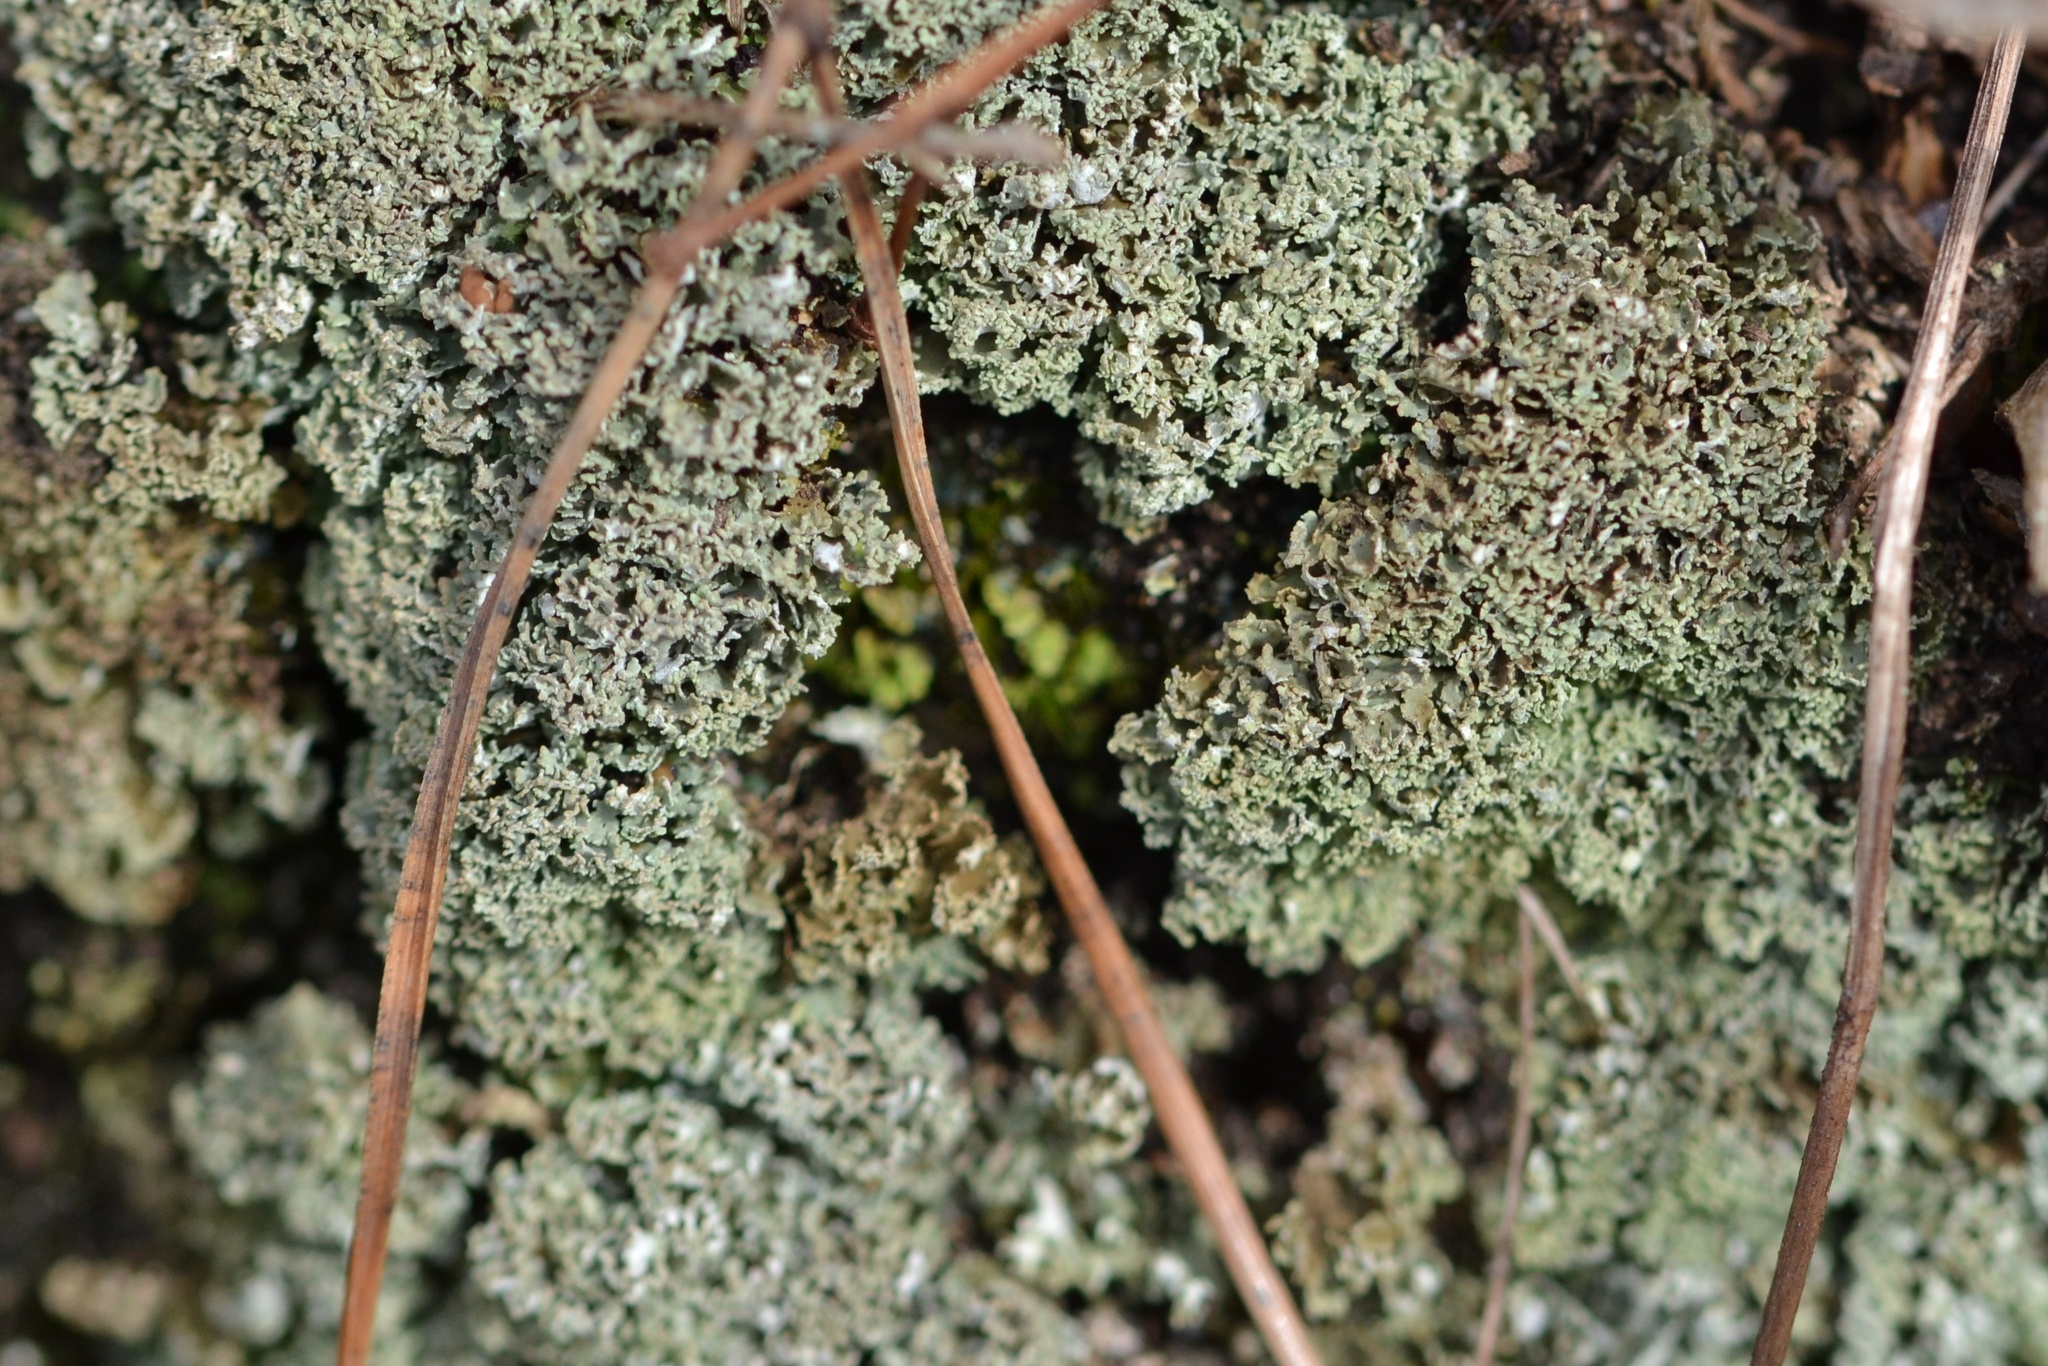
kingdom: Fungi
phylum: Ascomycota
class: Lecanoromycetes
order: Lecanorales
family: Cladoniaceae
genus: Cladonia
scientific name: Cladonia caespiticia
